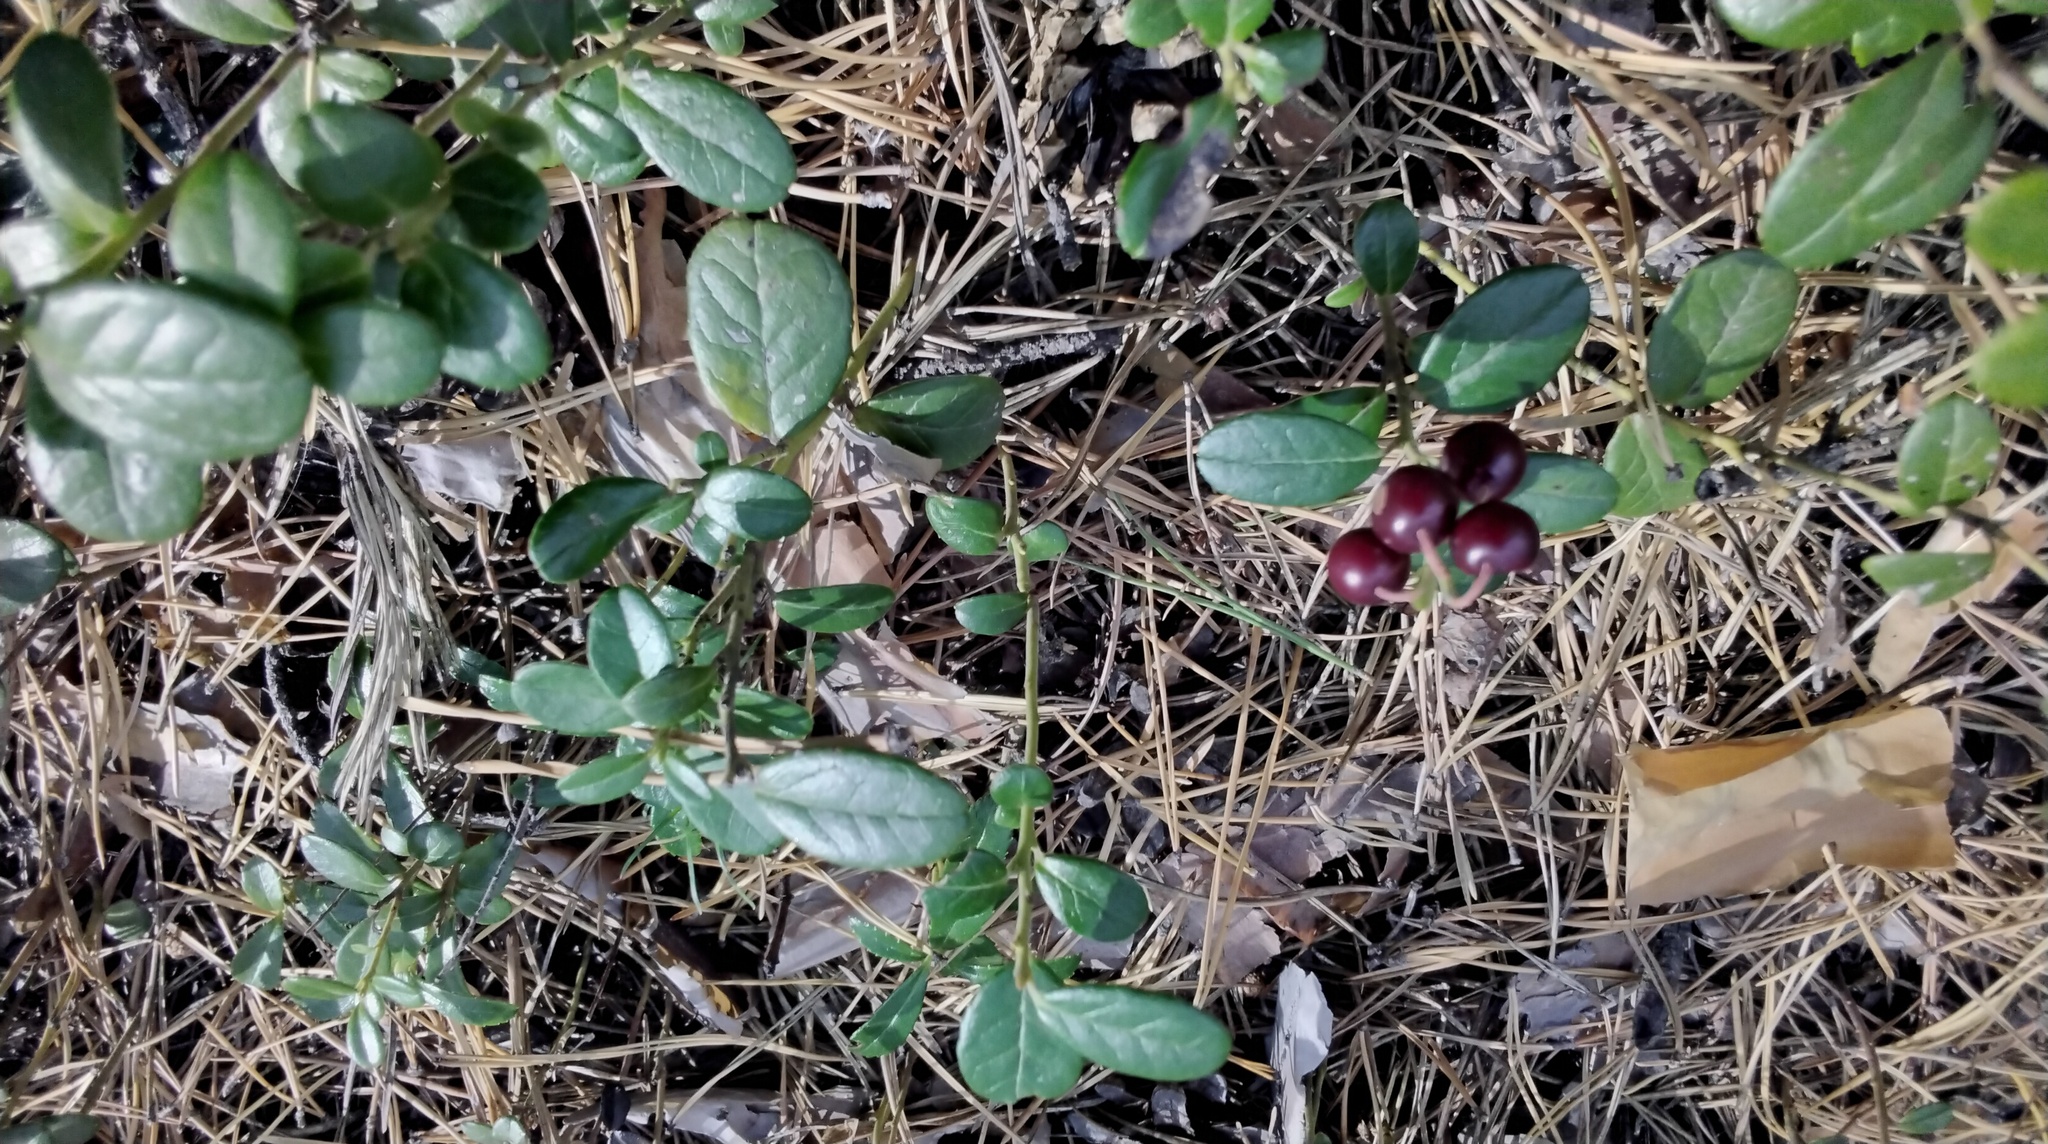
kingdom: Plantae
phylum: Tracheophyta
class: Magnoliopsida
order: Ericales
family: Ericaceae
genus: Vaccinium
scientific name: Vaccinium vitis-idaea
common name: Cowberry
